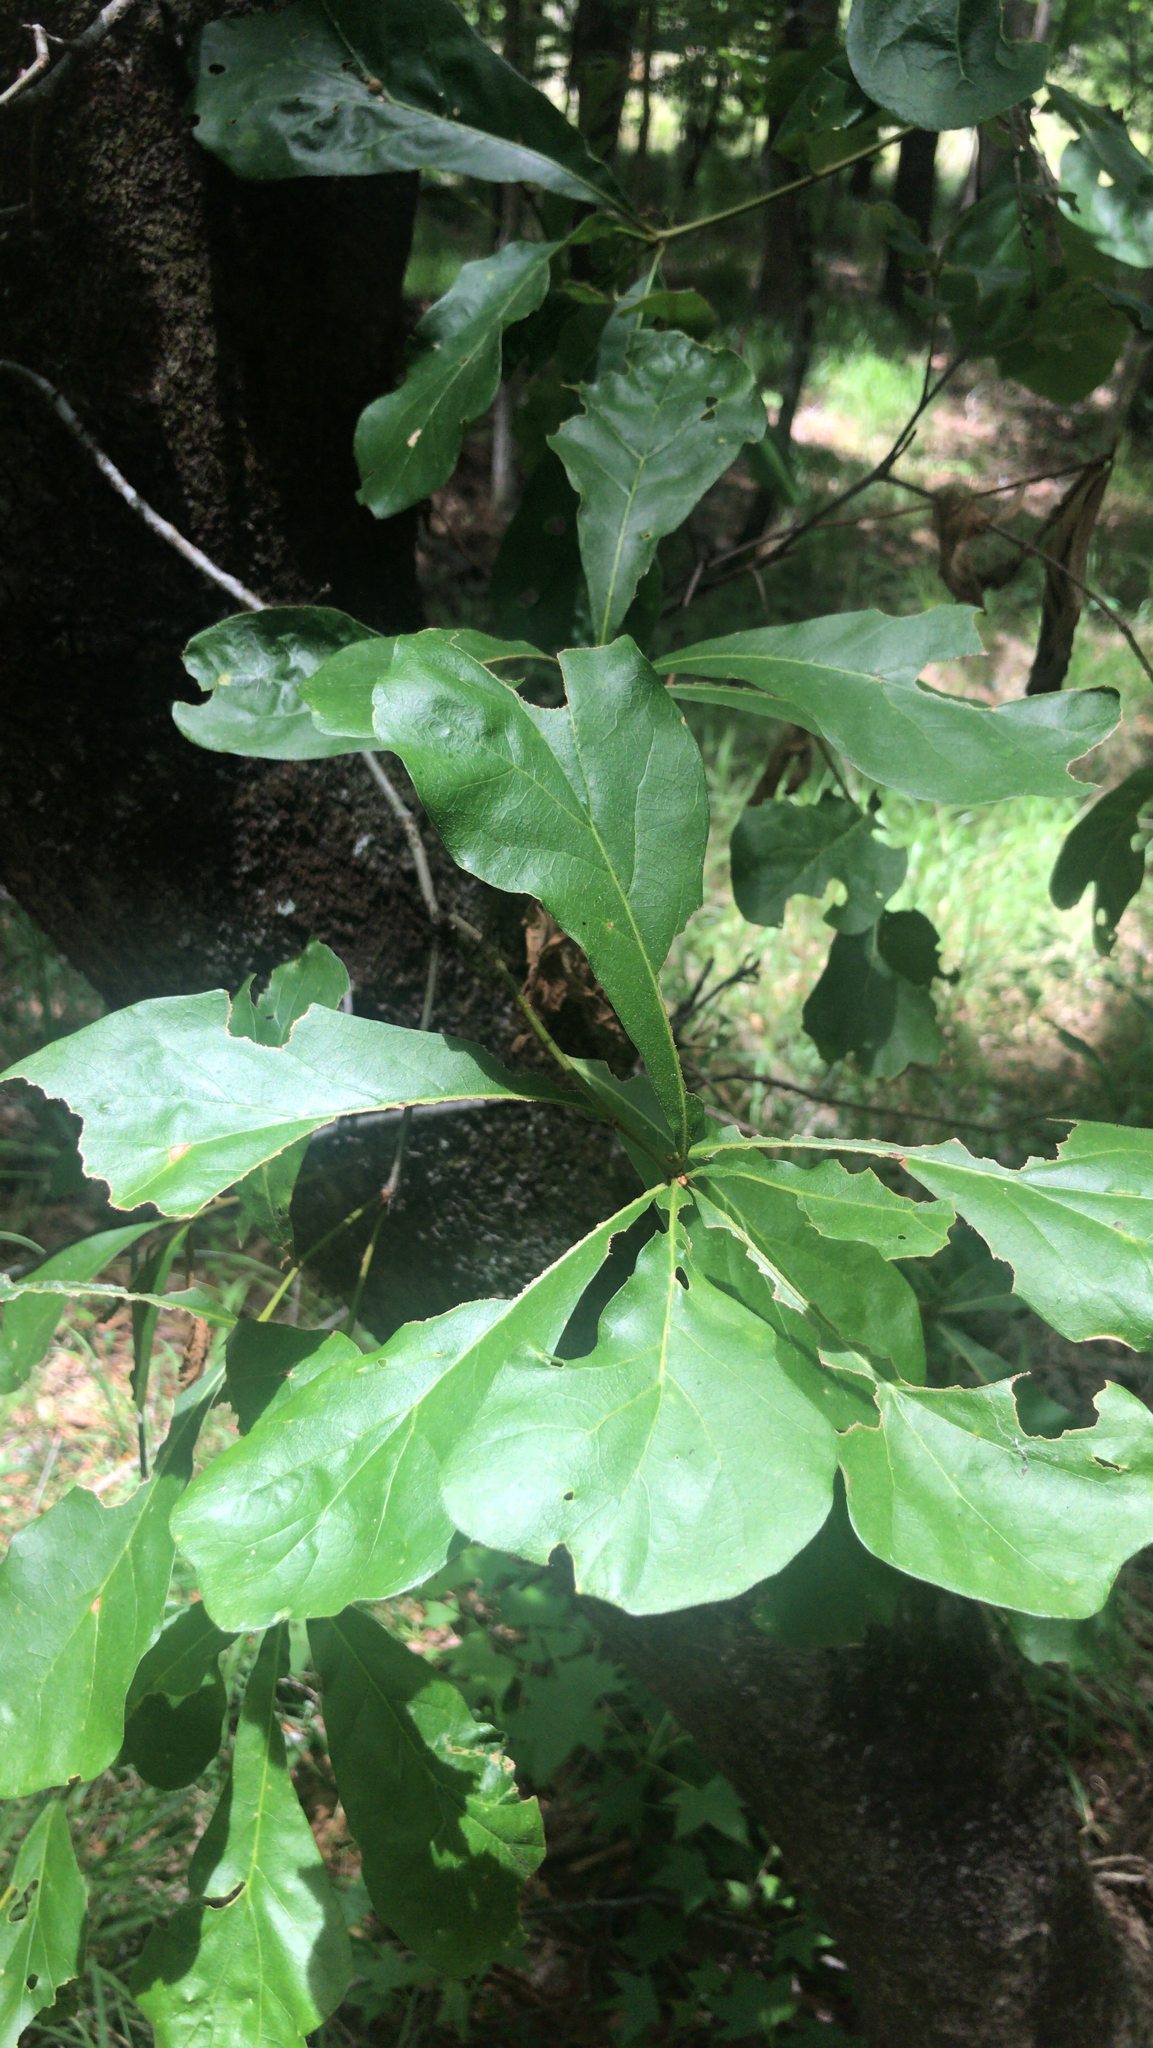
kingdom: Plantae
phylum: Tracheophyta
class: Magnoliopsida
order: Fagales
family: Fagaceae
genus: Quercus
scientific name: Quercus nigra
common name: Water oak
